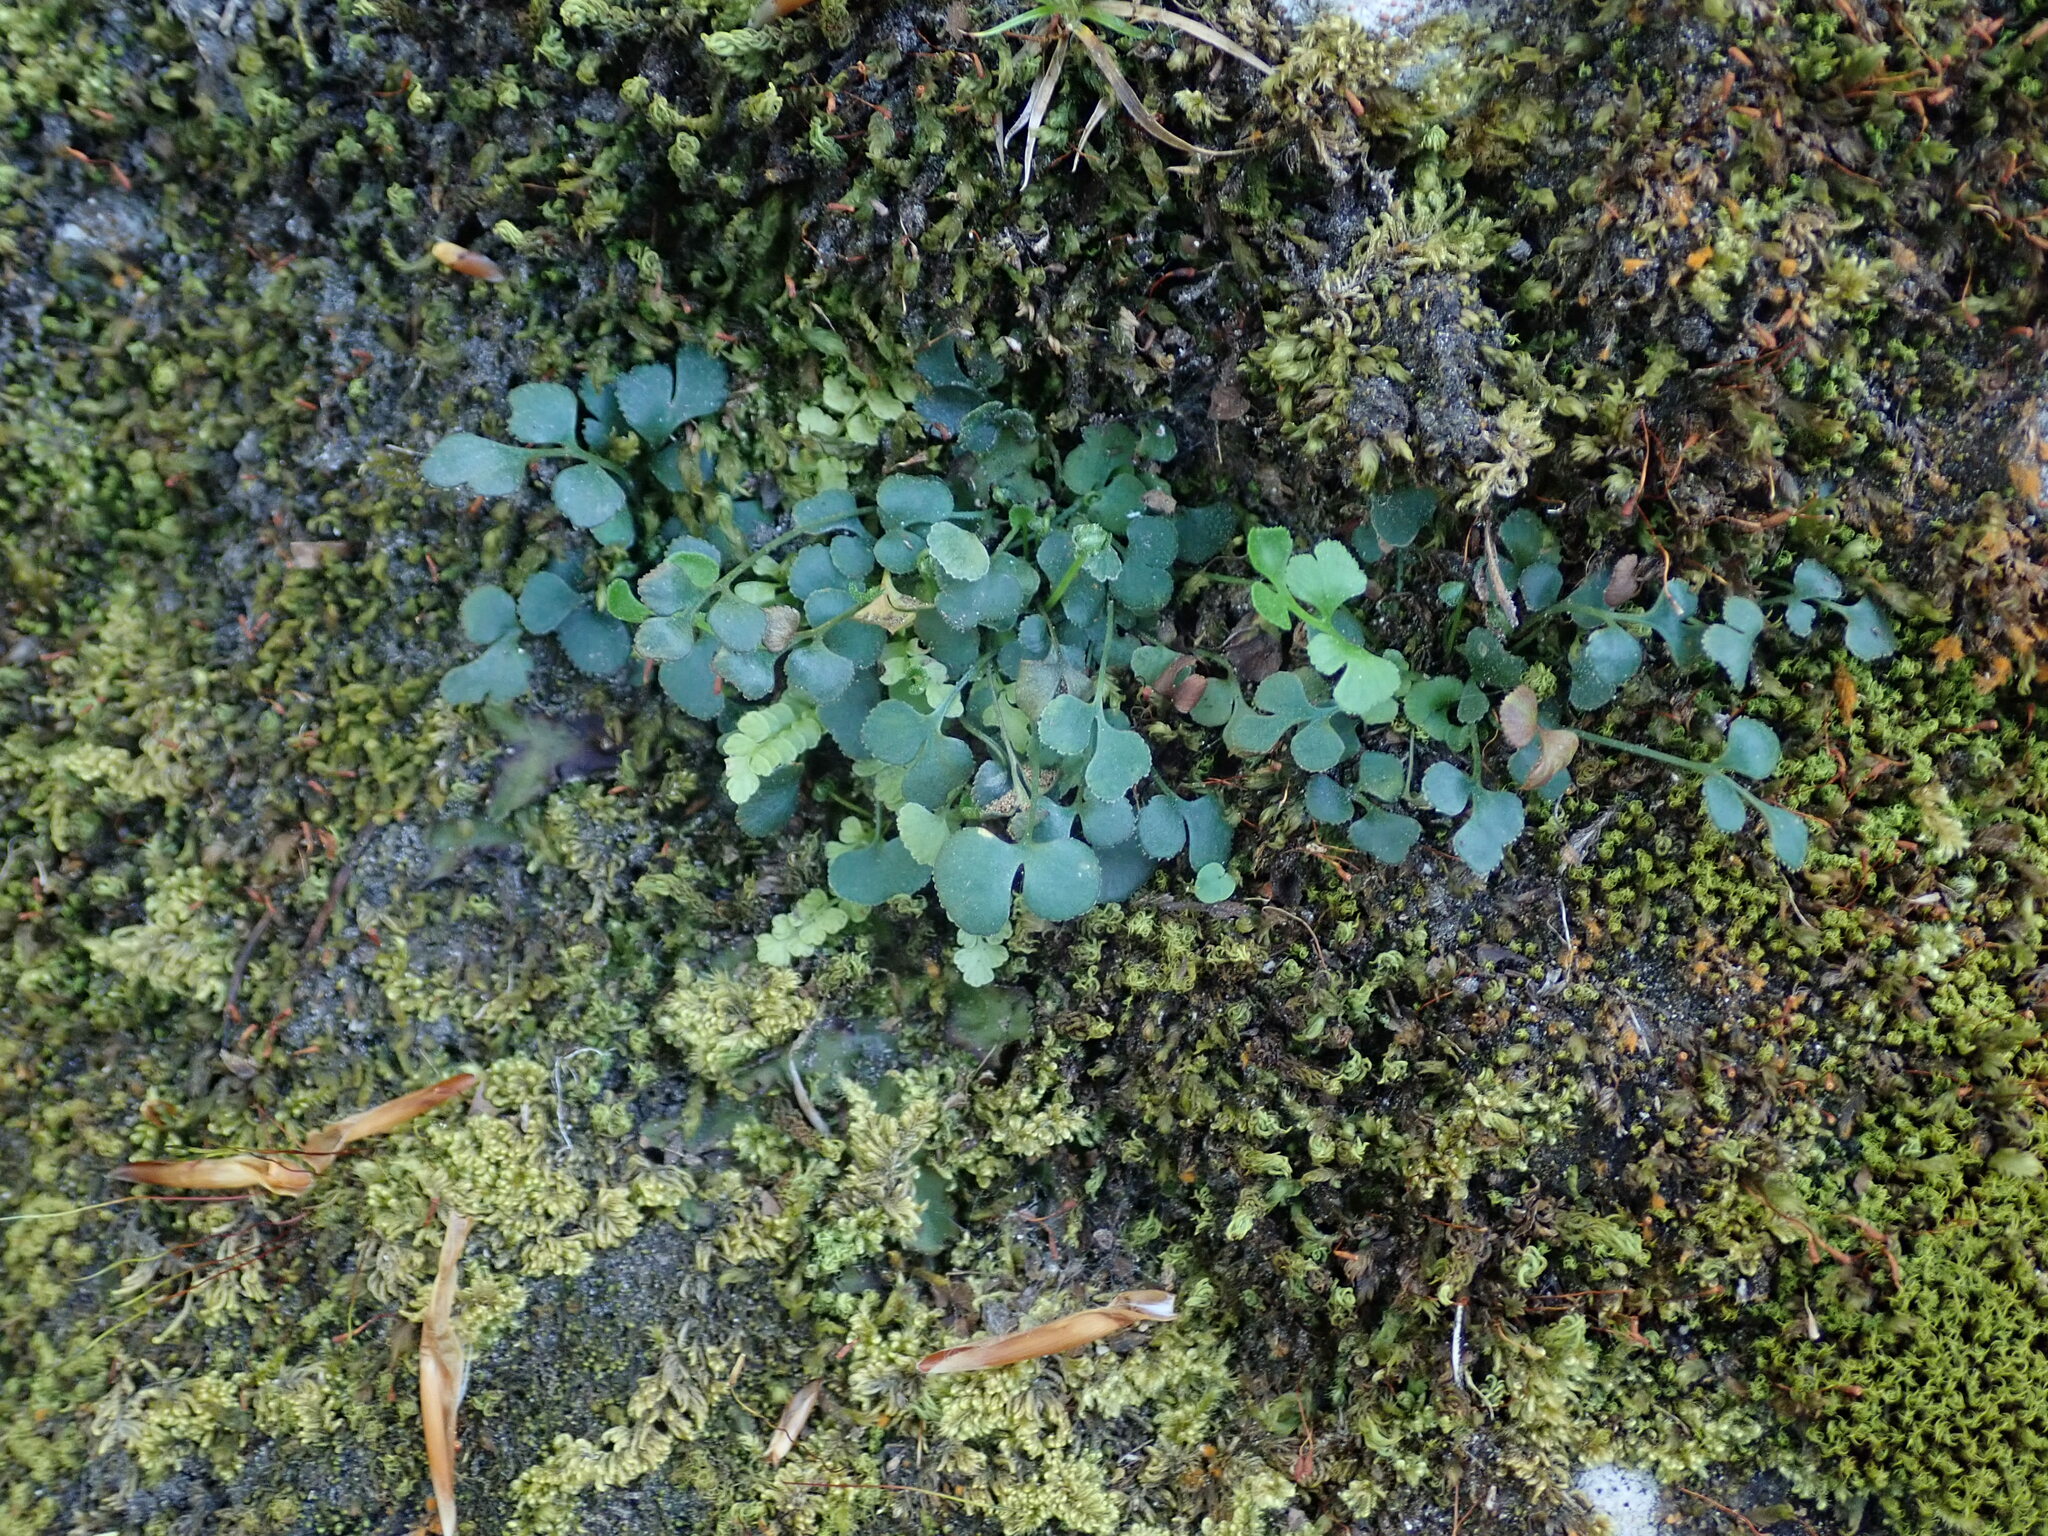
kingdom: Plantae
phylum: Tracheophyta
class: Polypodiopsida
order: Polypodiales
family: Aspleniaceae
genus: Asplenium
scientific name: Asplenium ruta-muraria
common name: Wall-rue
